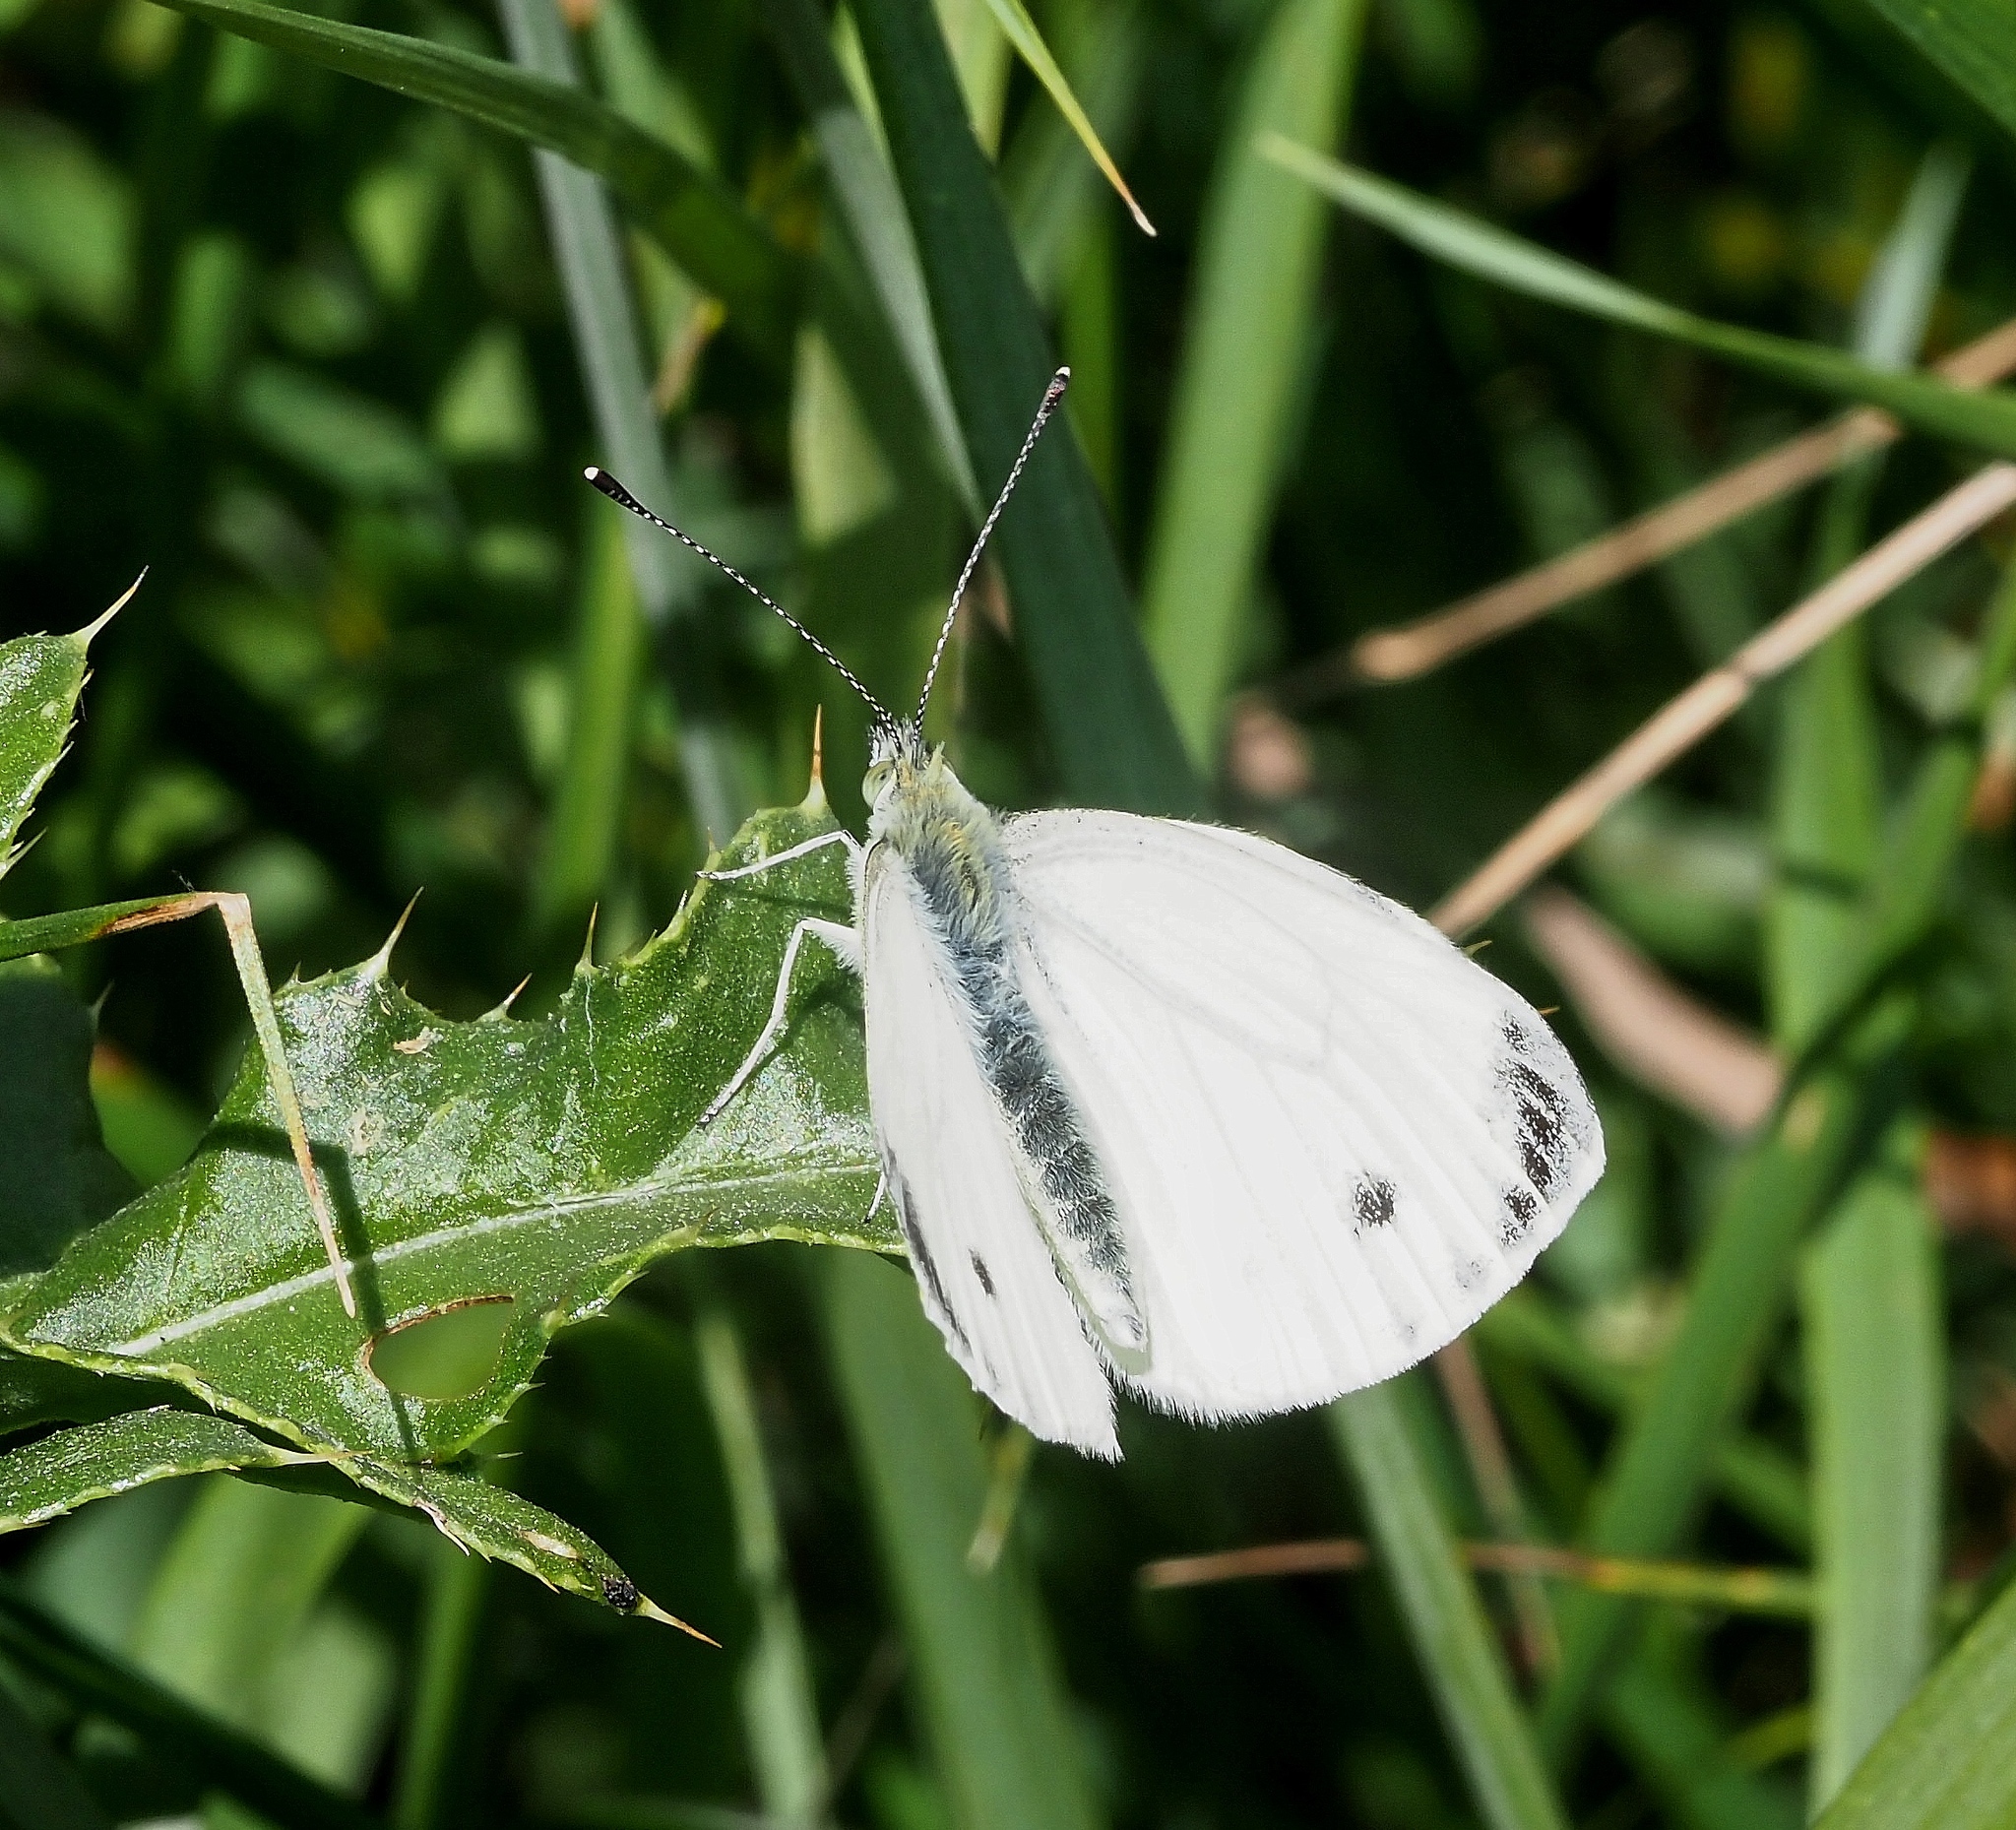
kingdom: Animalia
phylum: Arthropoda
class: Insecta
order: Lepidoptera
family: Pieridae
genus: Pieris
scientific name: Pieris napi
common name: Green-veined white
